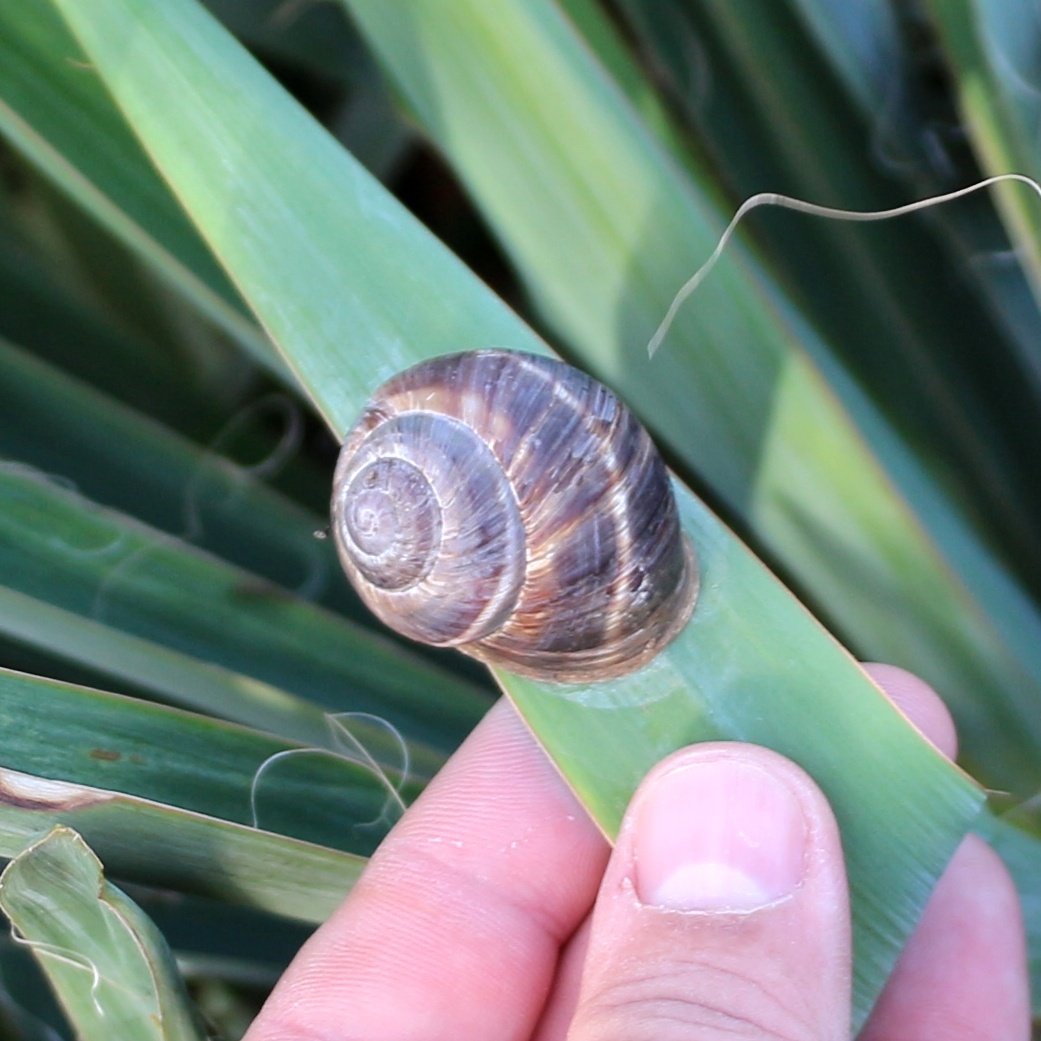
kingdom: Animalia
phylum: Mollusca
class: Gastropoda
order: Stylommatophora
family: Helicidae
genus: Helix
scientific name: Helix lucorum
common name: Turkish snail
